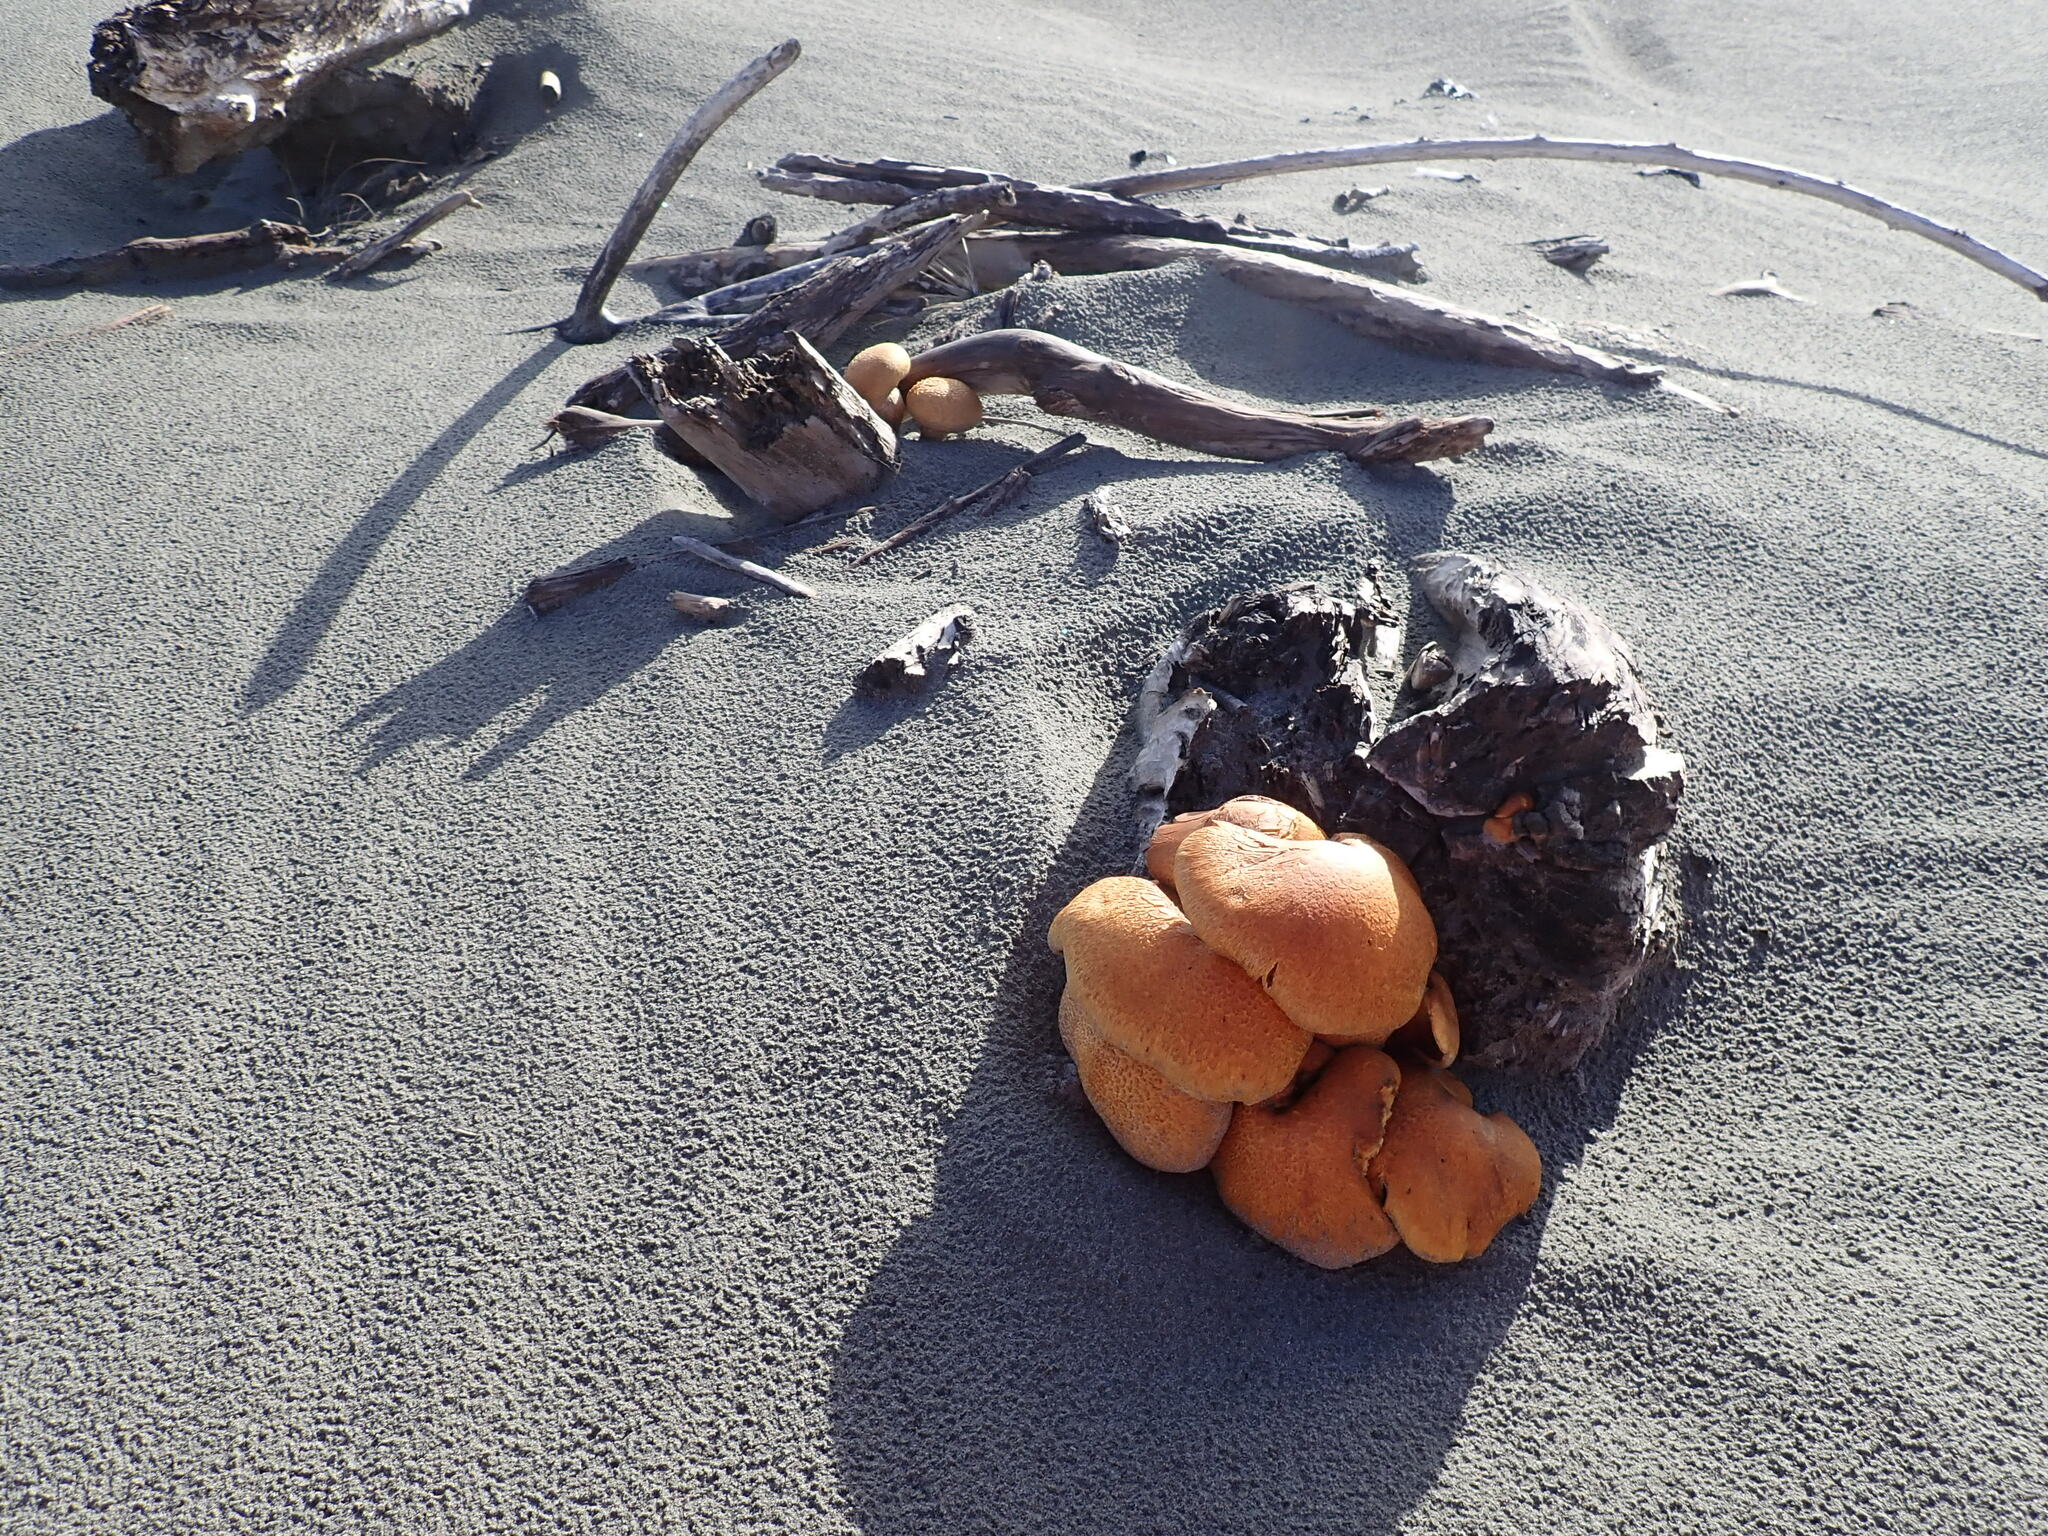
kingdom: Fungi
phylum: Basidiomycota
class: Agaricomycetes
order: Agaricales
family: Hymenogastraceae
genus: Gymnopilus
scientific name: Gymnopilus junonius
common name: Spectacular rustgill
